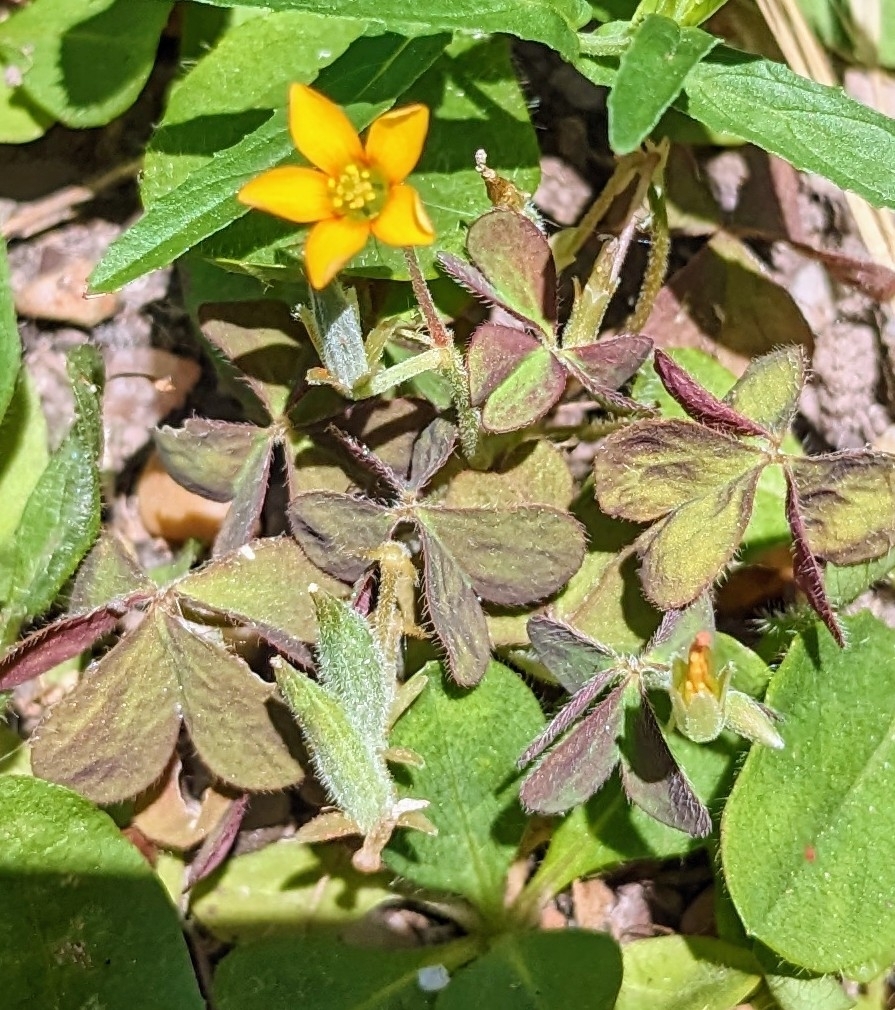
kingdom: Plantae
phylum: Tracheophyta
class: Magnoliopsida
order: Oxalidales
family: Oxalidaceae
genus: Oxalis
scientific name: Oxalis corniculata
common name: Procumbent yellow-sorrel
